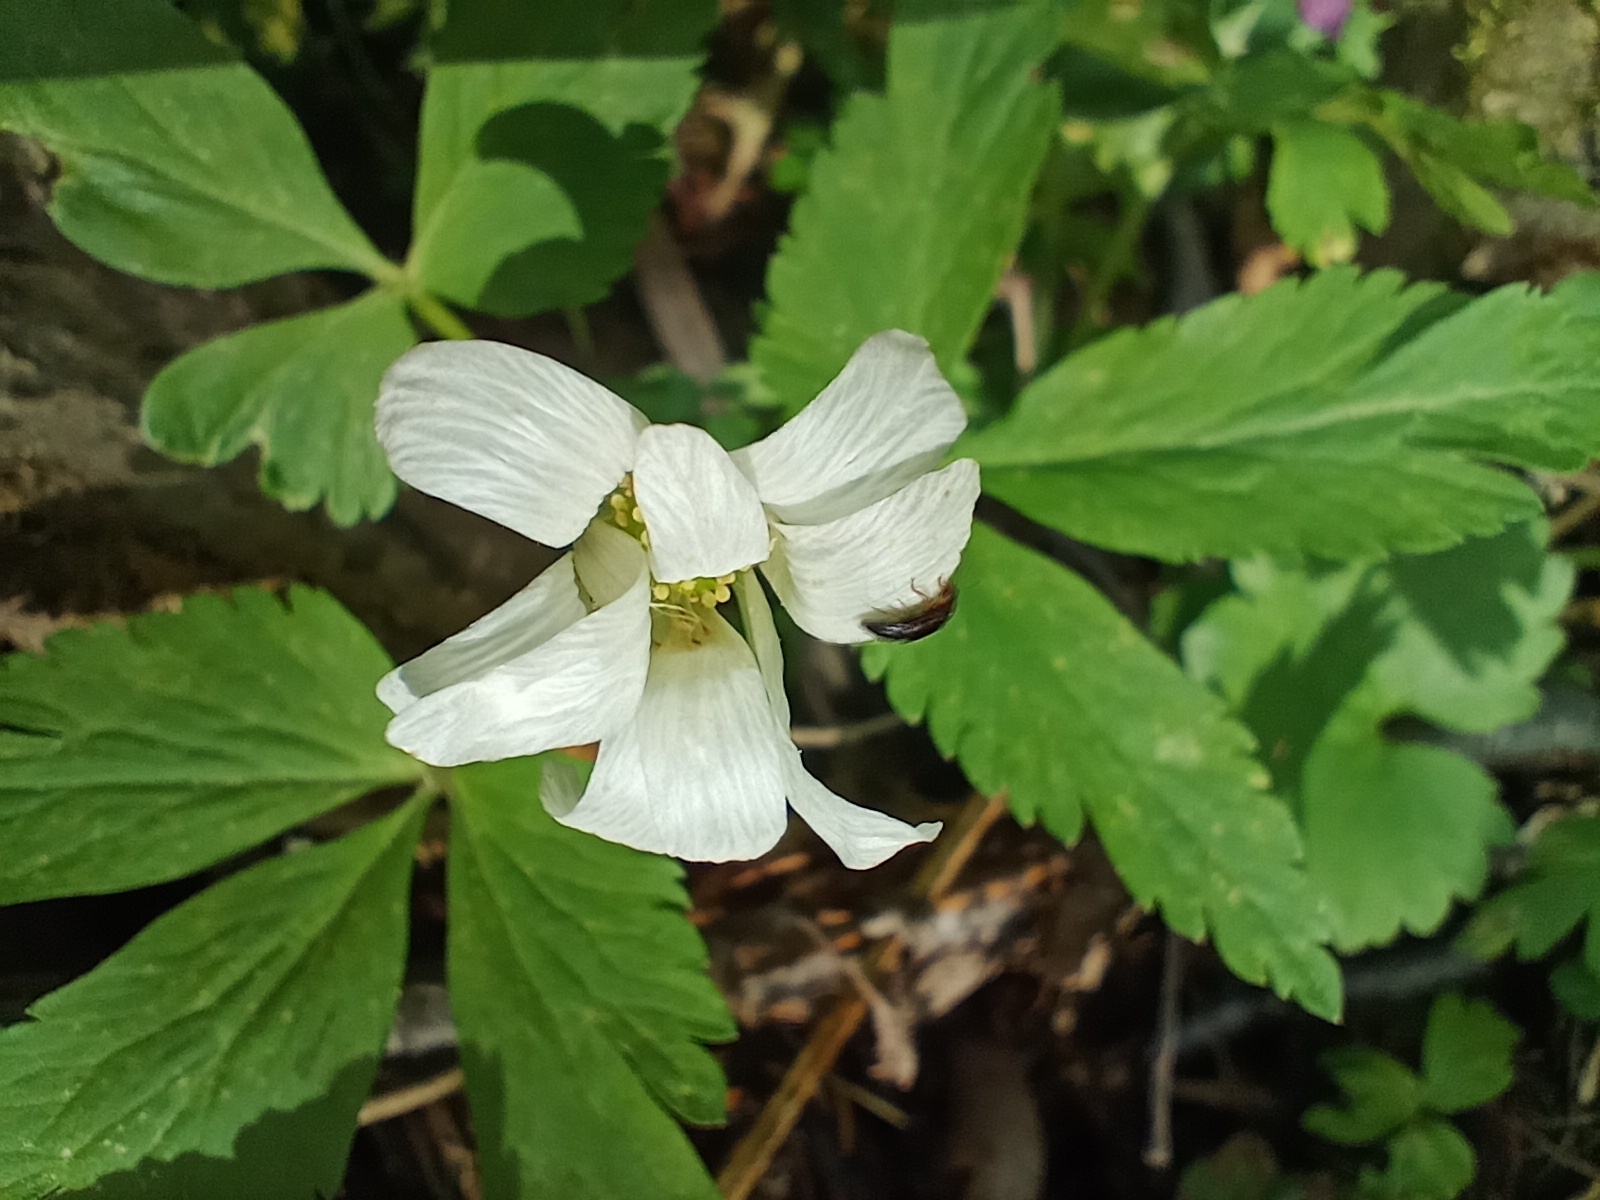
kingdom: Plantae
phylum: Tracheophyta
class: Magnoliopsida
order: Ranunculales
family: Ranunculaceae
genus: Anemone
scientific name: Anemone altaica
